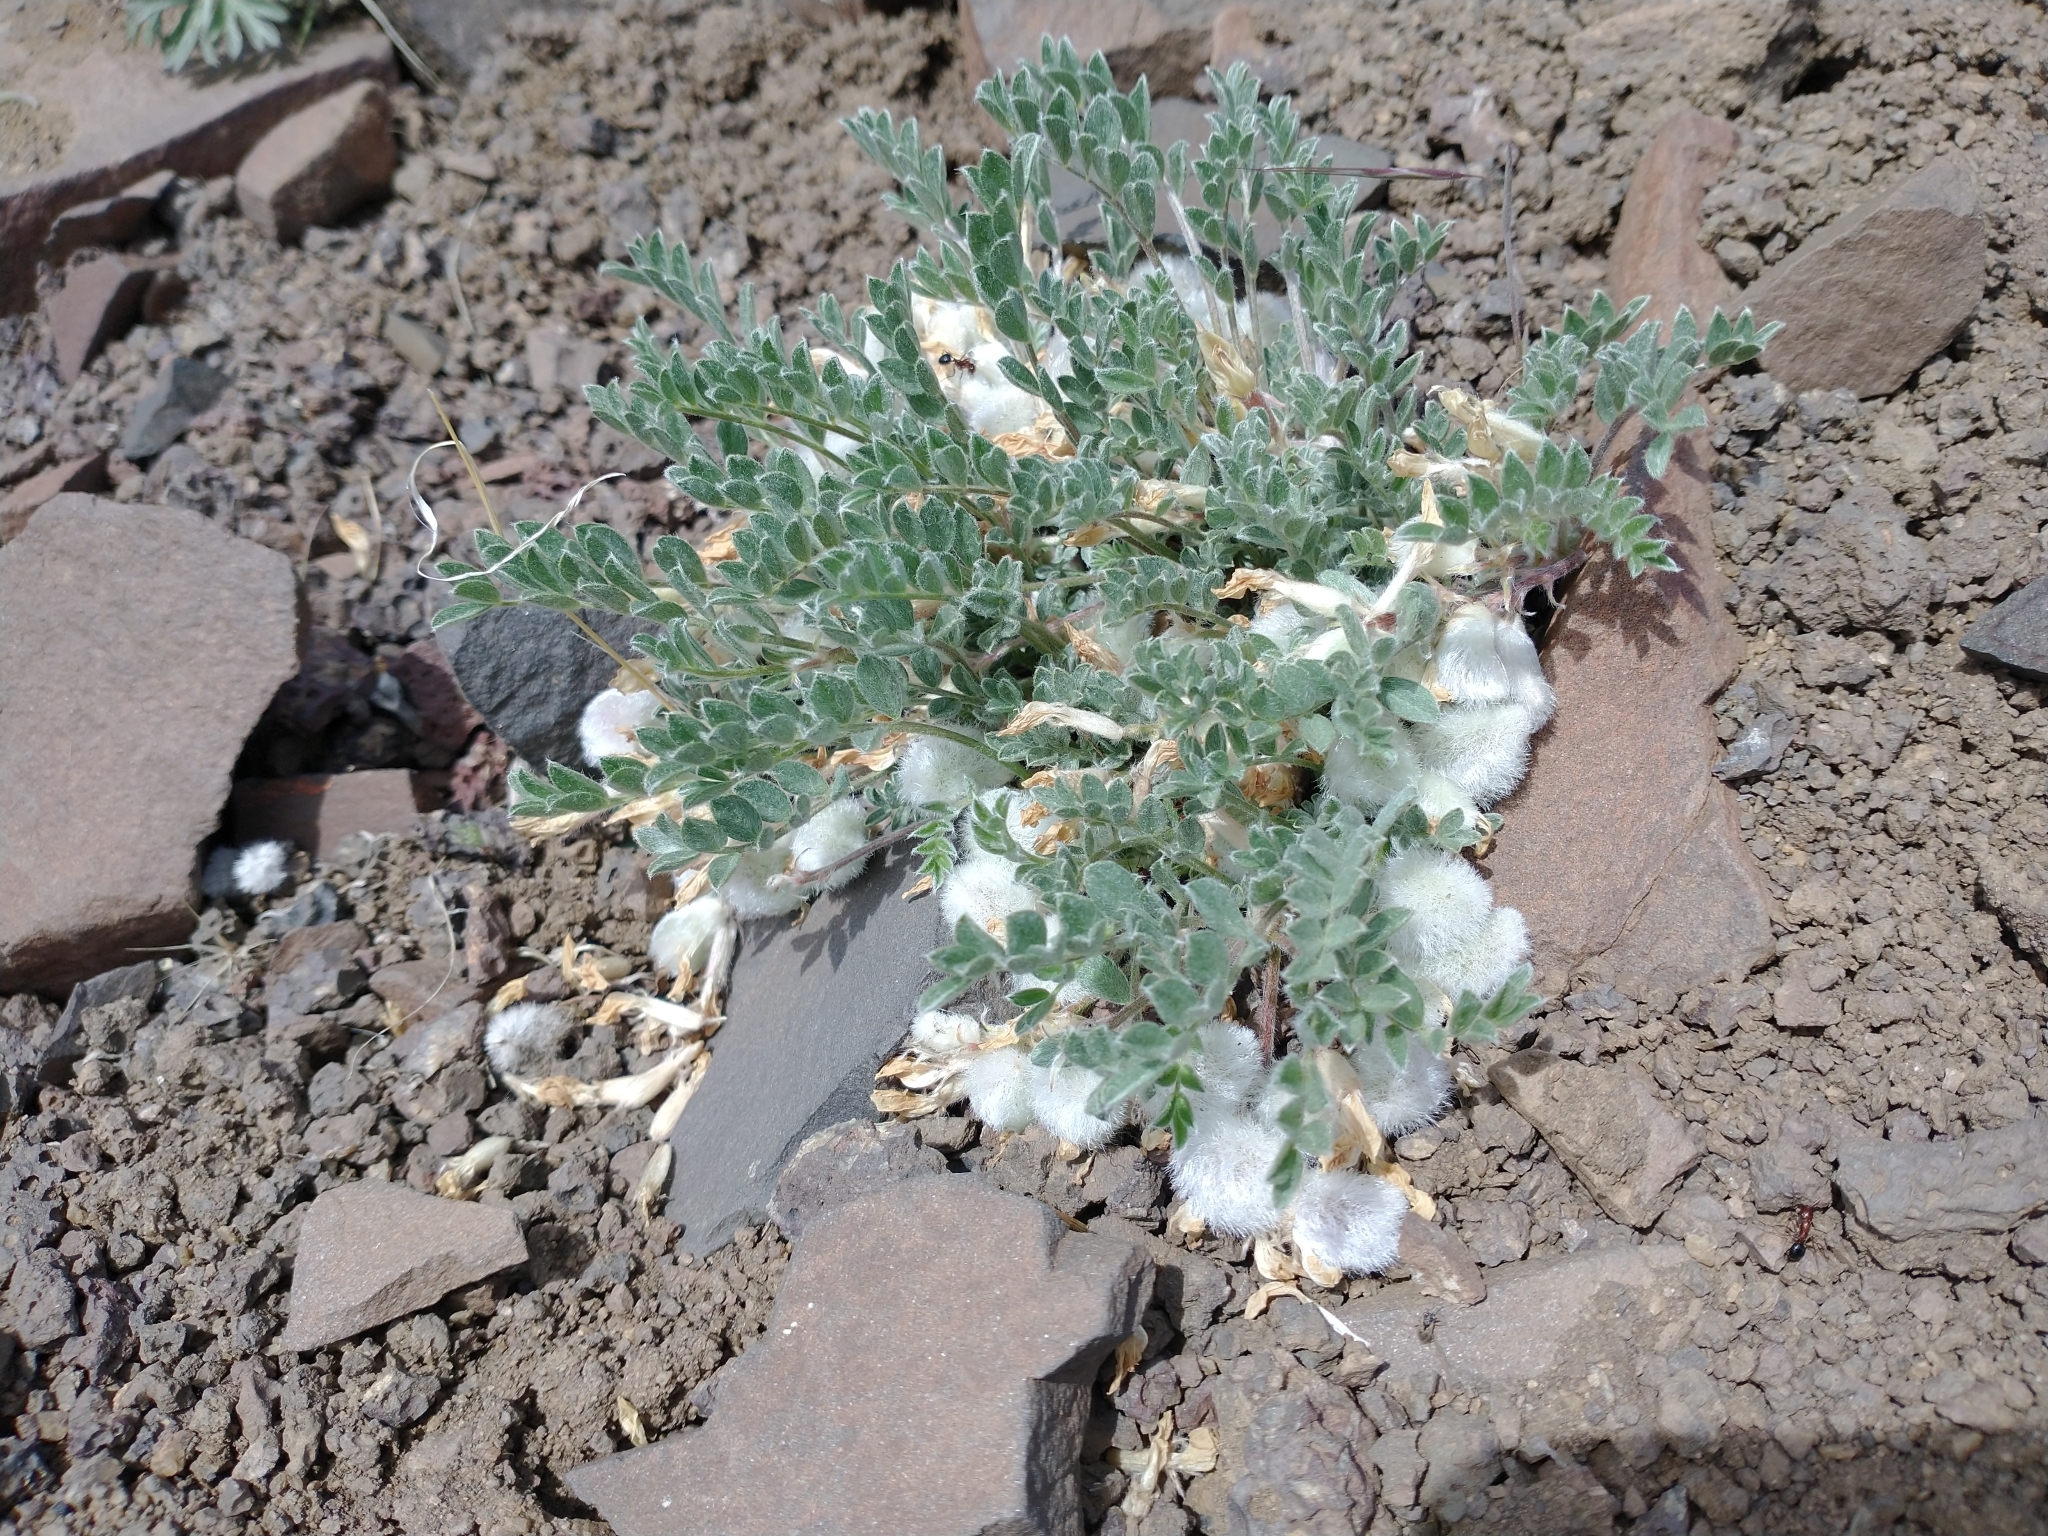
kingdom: Plantae
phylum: Tracheophyta
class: Magnoliopsida
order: Fabales
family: Fabaceae
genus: Astragalus
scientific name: Astragalus purshii
